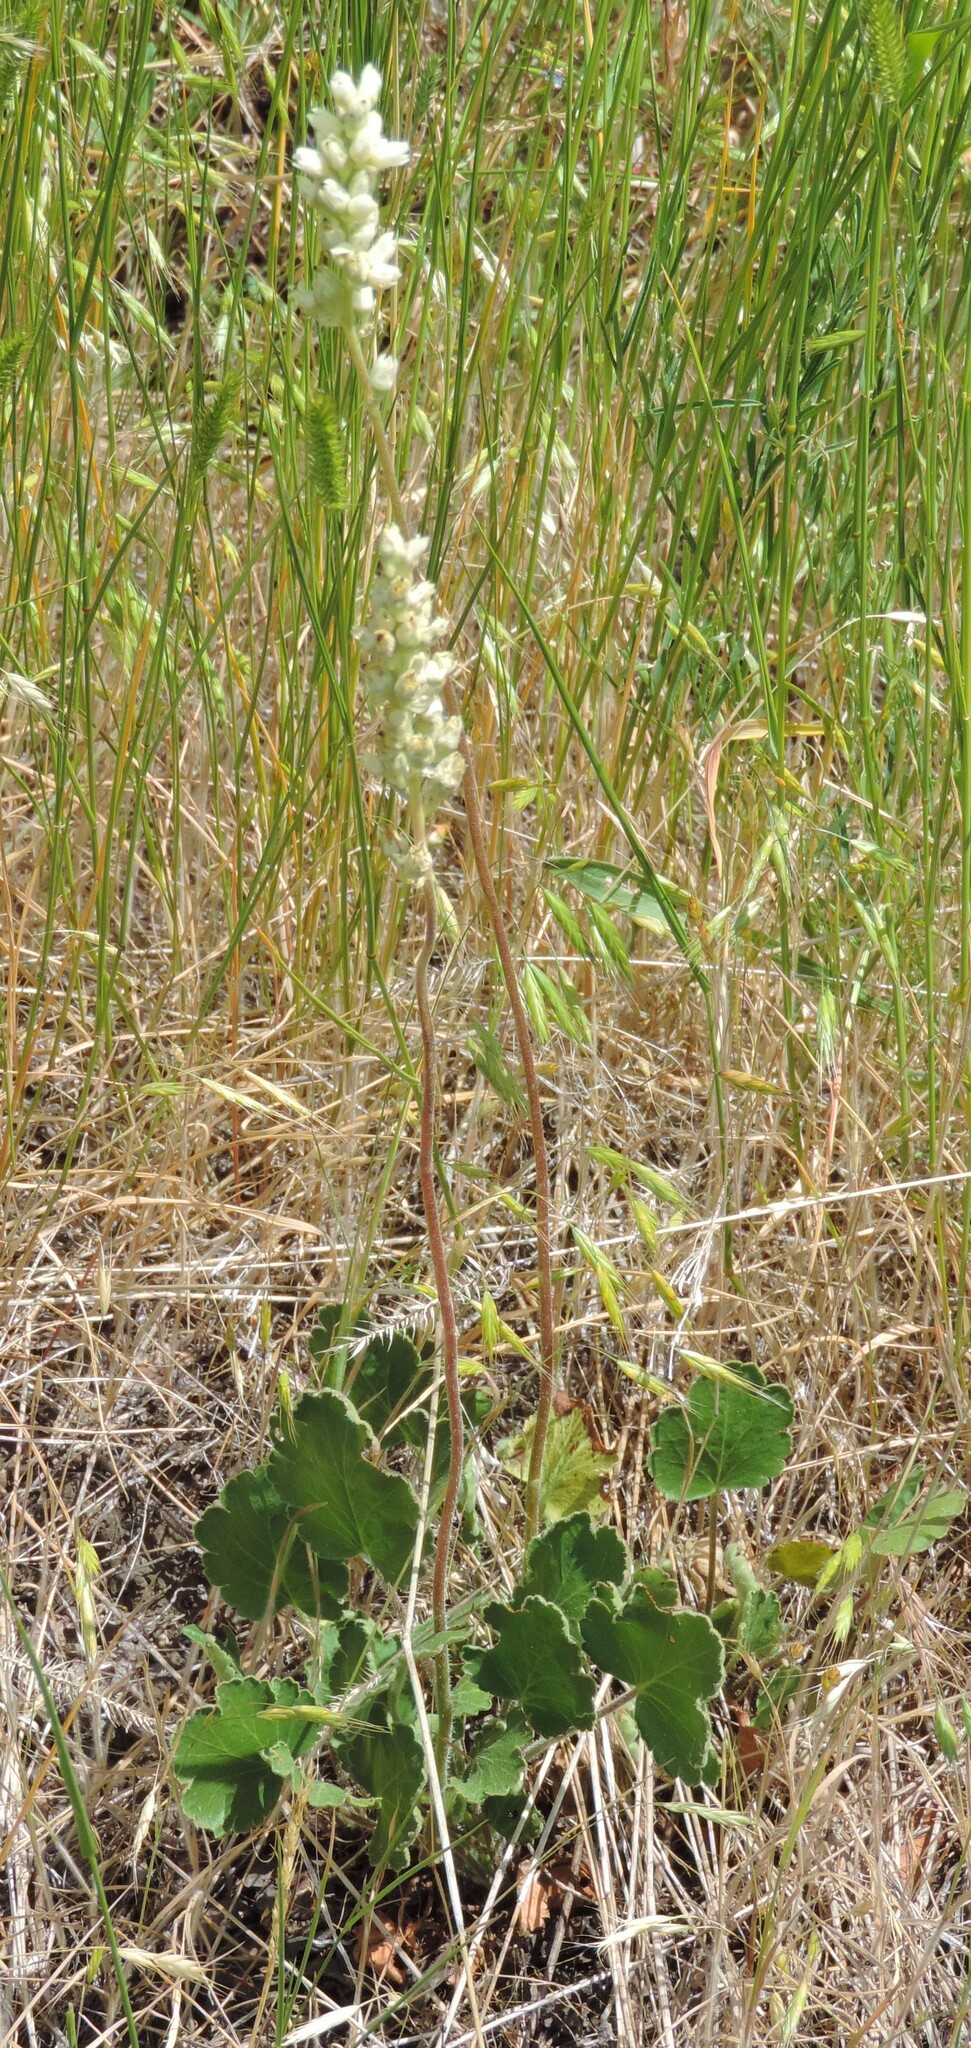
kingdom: Plantae
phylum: Tracheophyta
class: Magnoliopsida
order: Saxifragales
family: Saxifragaceae
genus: Heuchera
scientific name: Heuchera cylindrica
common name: Mat alumroot
